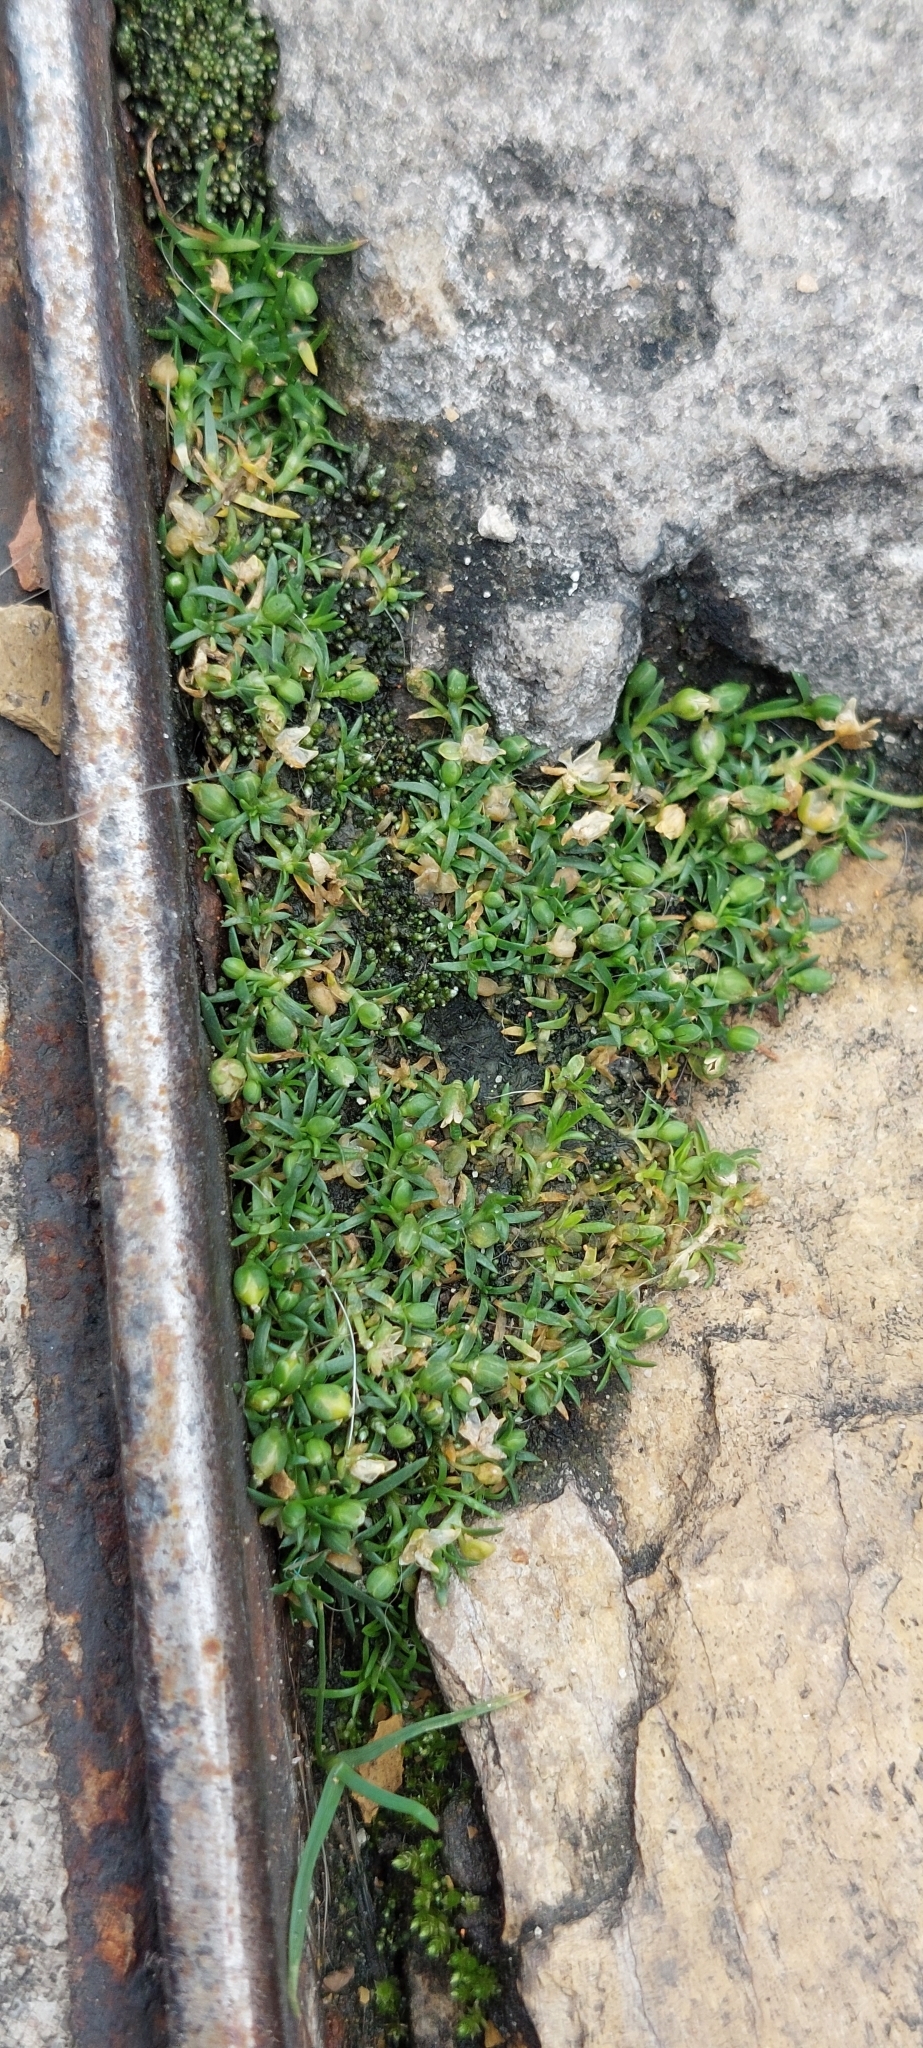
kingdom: Plantae
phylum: Tracheophyta
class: Magnoliopsida
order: Caryophyllales
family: Caryophyllaceae
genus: Sagina
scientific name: Sagina procumbens
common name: Procumbent pearlwort
